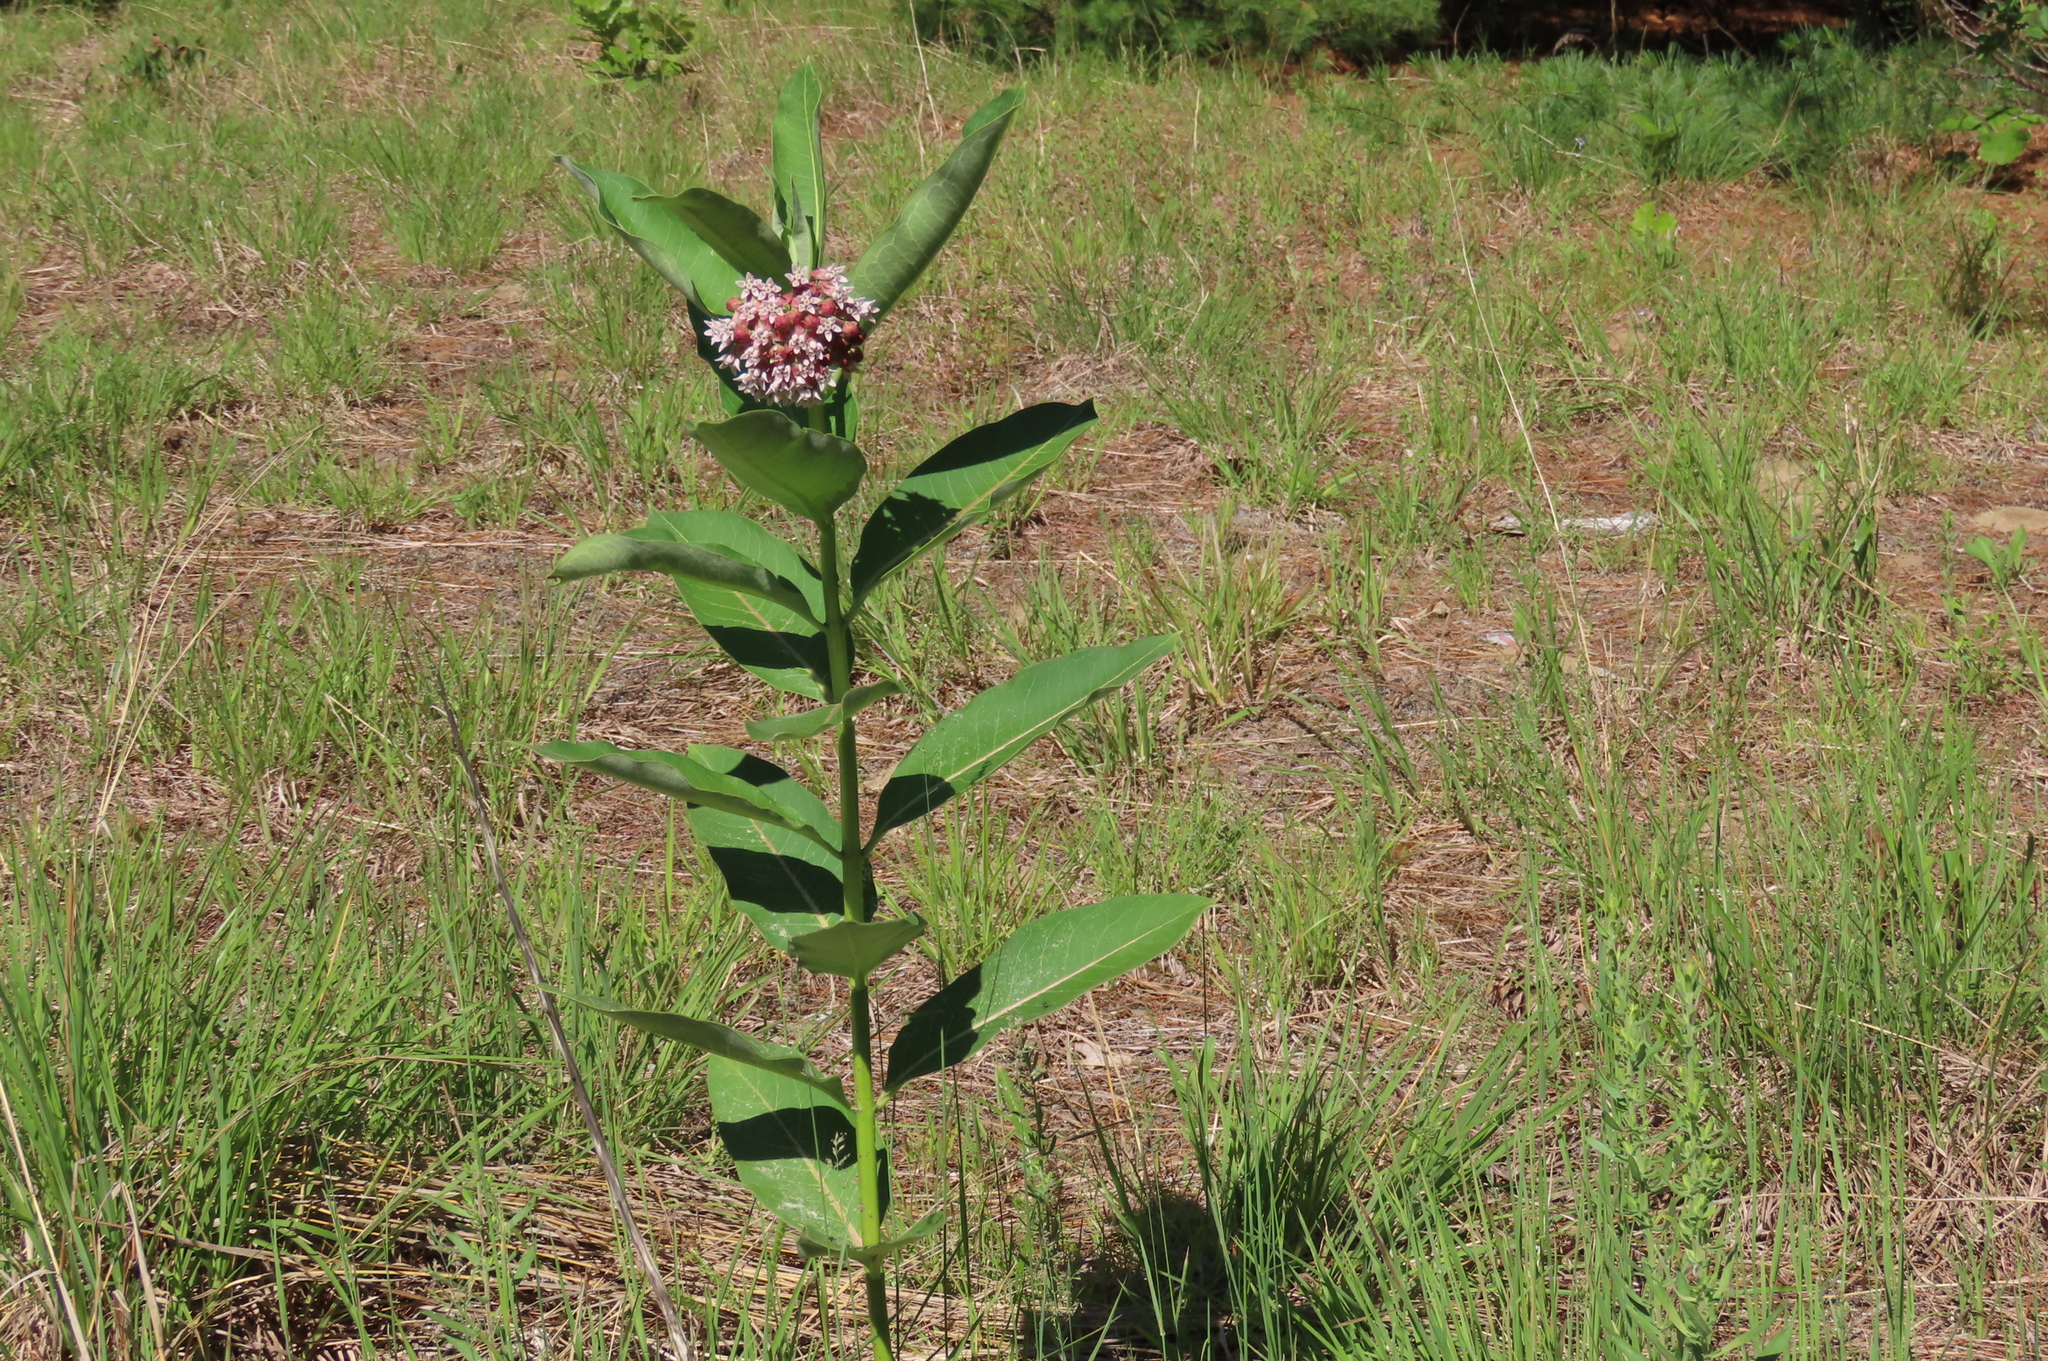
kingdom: Plantae
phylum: Tracheophyta
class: Magnoliopsida
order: Gentianales
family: Apocynaceae
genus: Asclepias
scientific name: Asclepias syriaca
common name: Common milkweed
